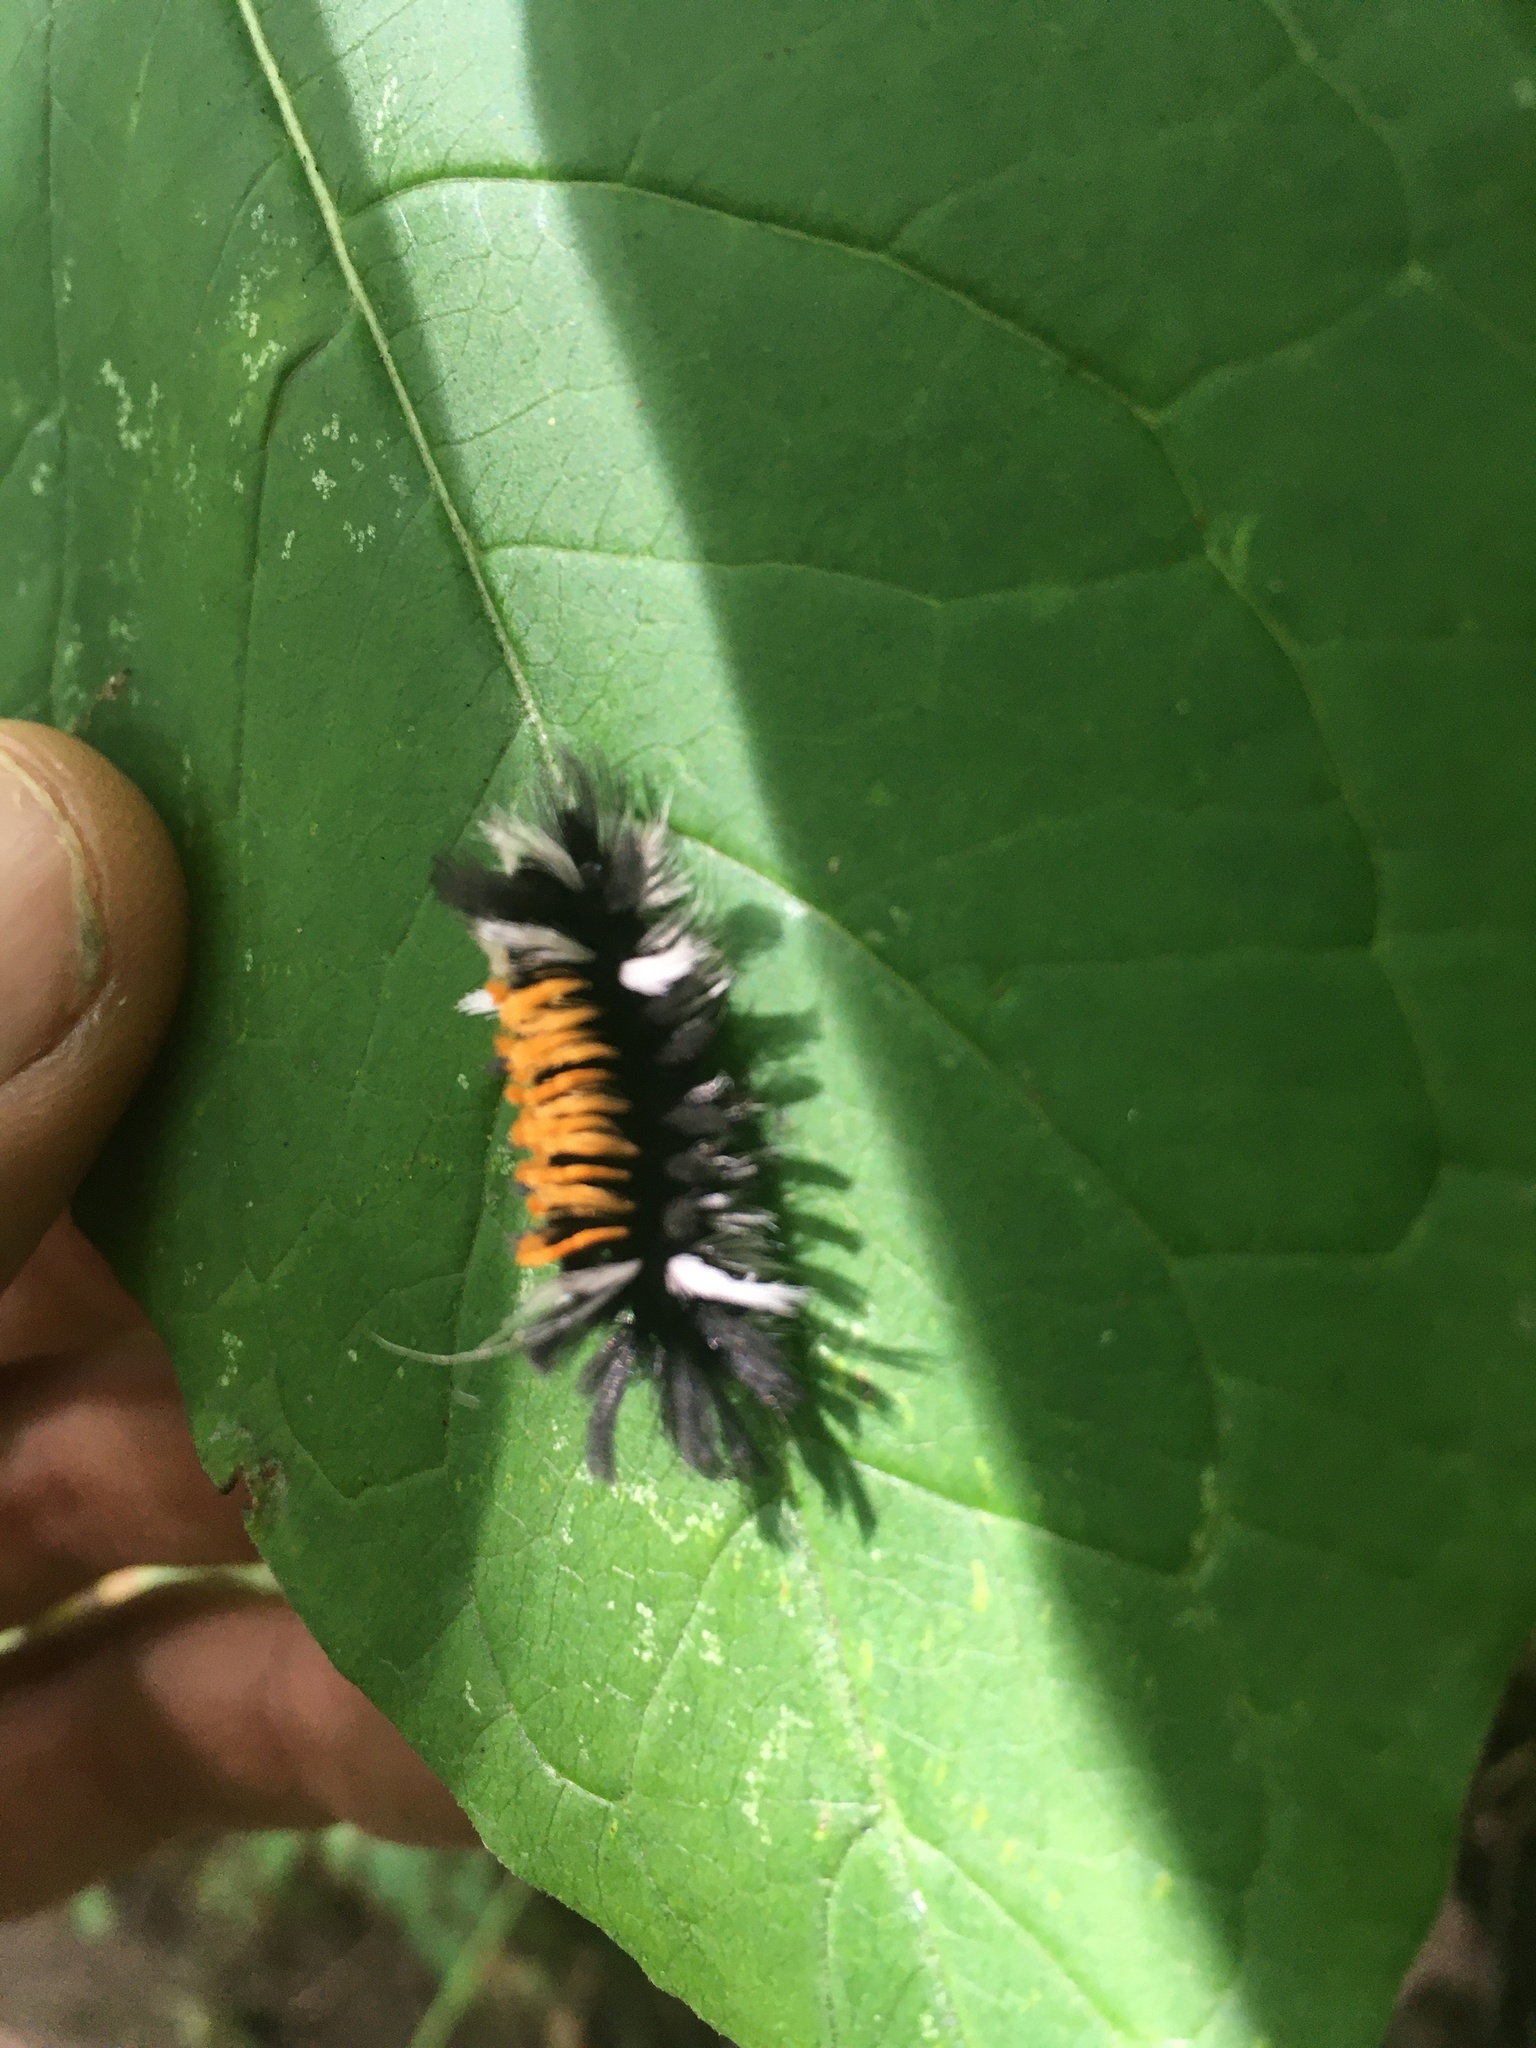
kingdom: Animalia
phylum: Arthropoda
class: Insecta
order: Lepidoptera
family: Erebidae
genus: Euchaetes
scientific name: Euchaetes egle
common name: Milkweed tussock moth
